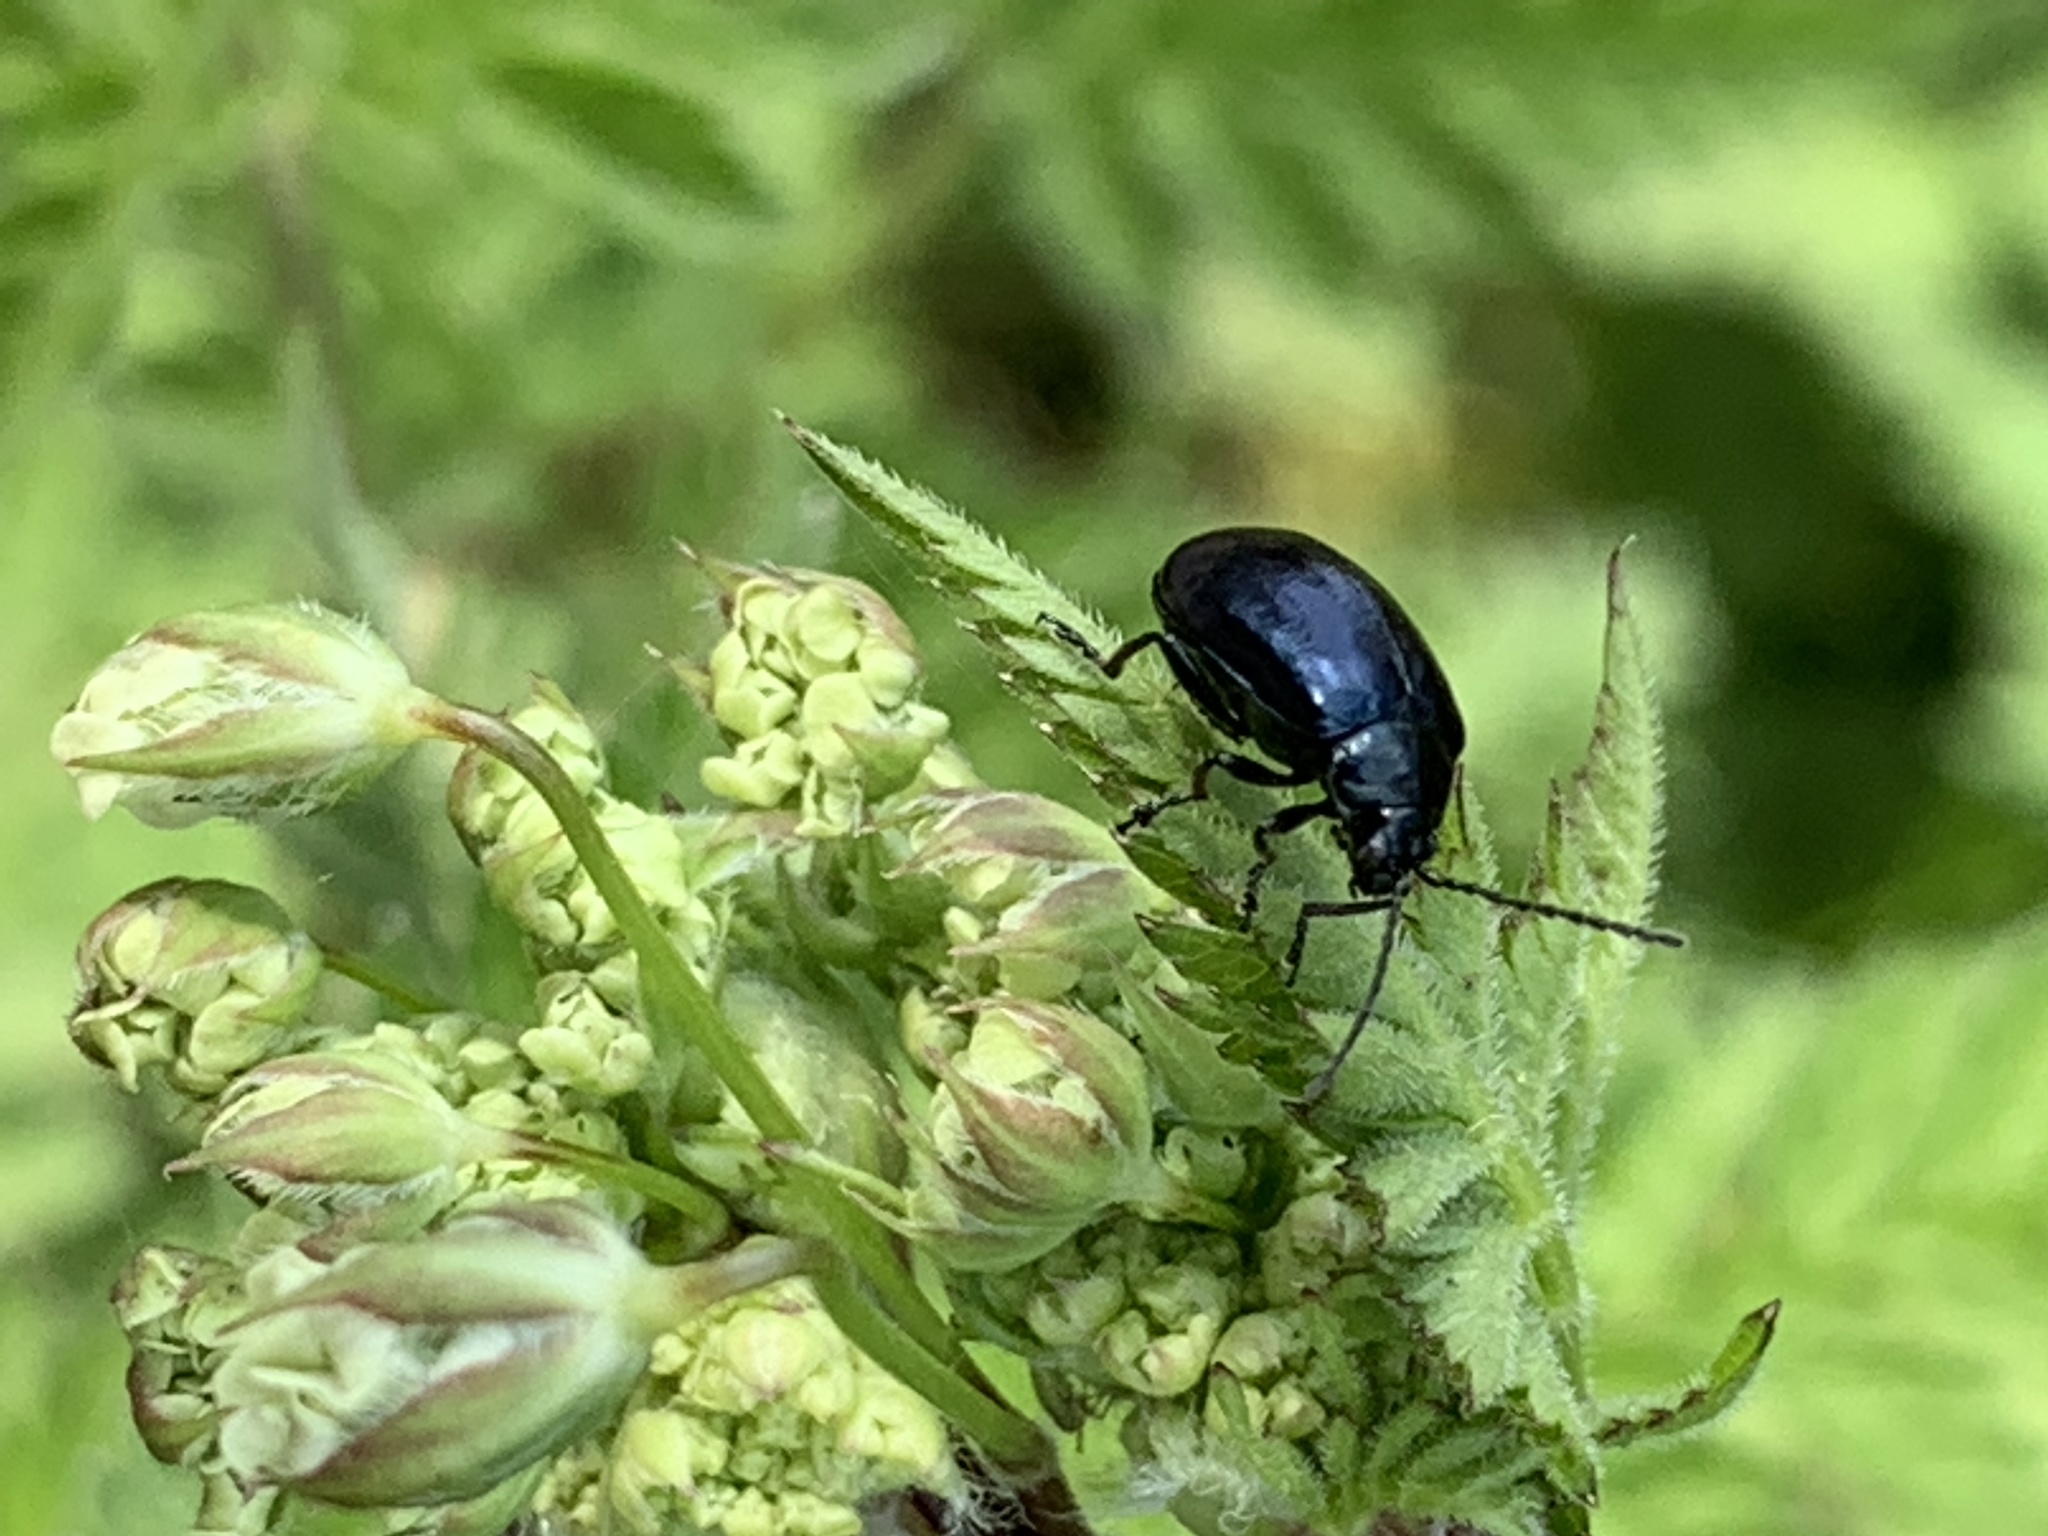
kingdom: Animalia
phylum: Arthropoda
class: Insecta
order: Coleoptera
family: Chrysomelidae
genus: Agelastica
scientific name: Agelastica alni
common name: Alder leaf beetle
